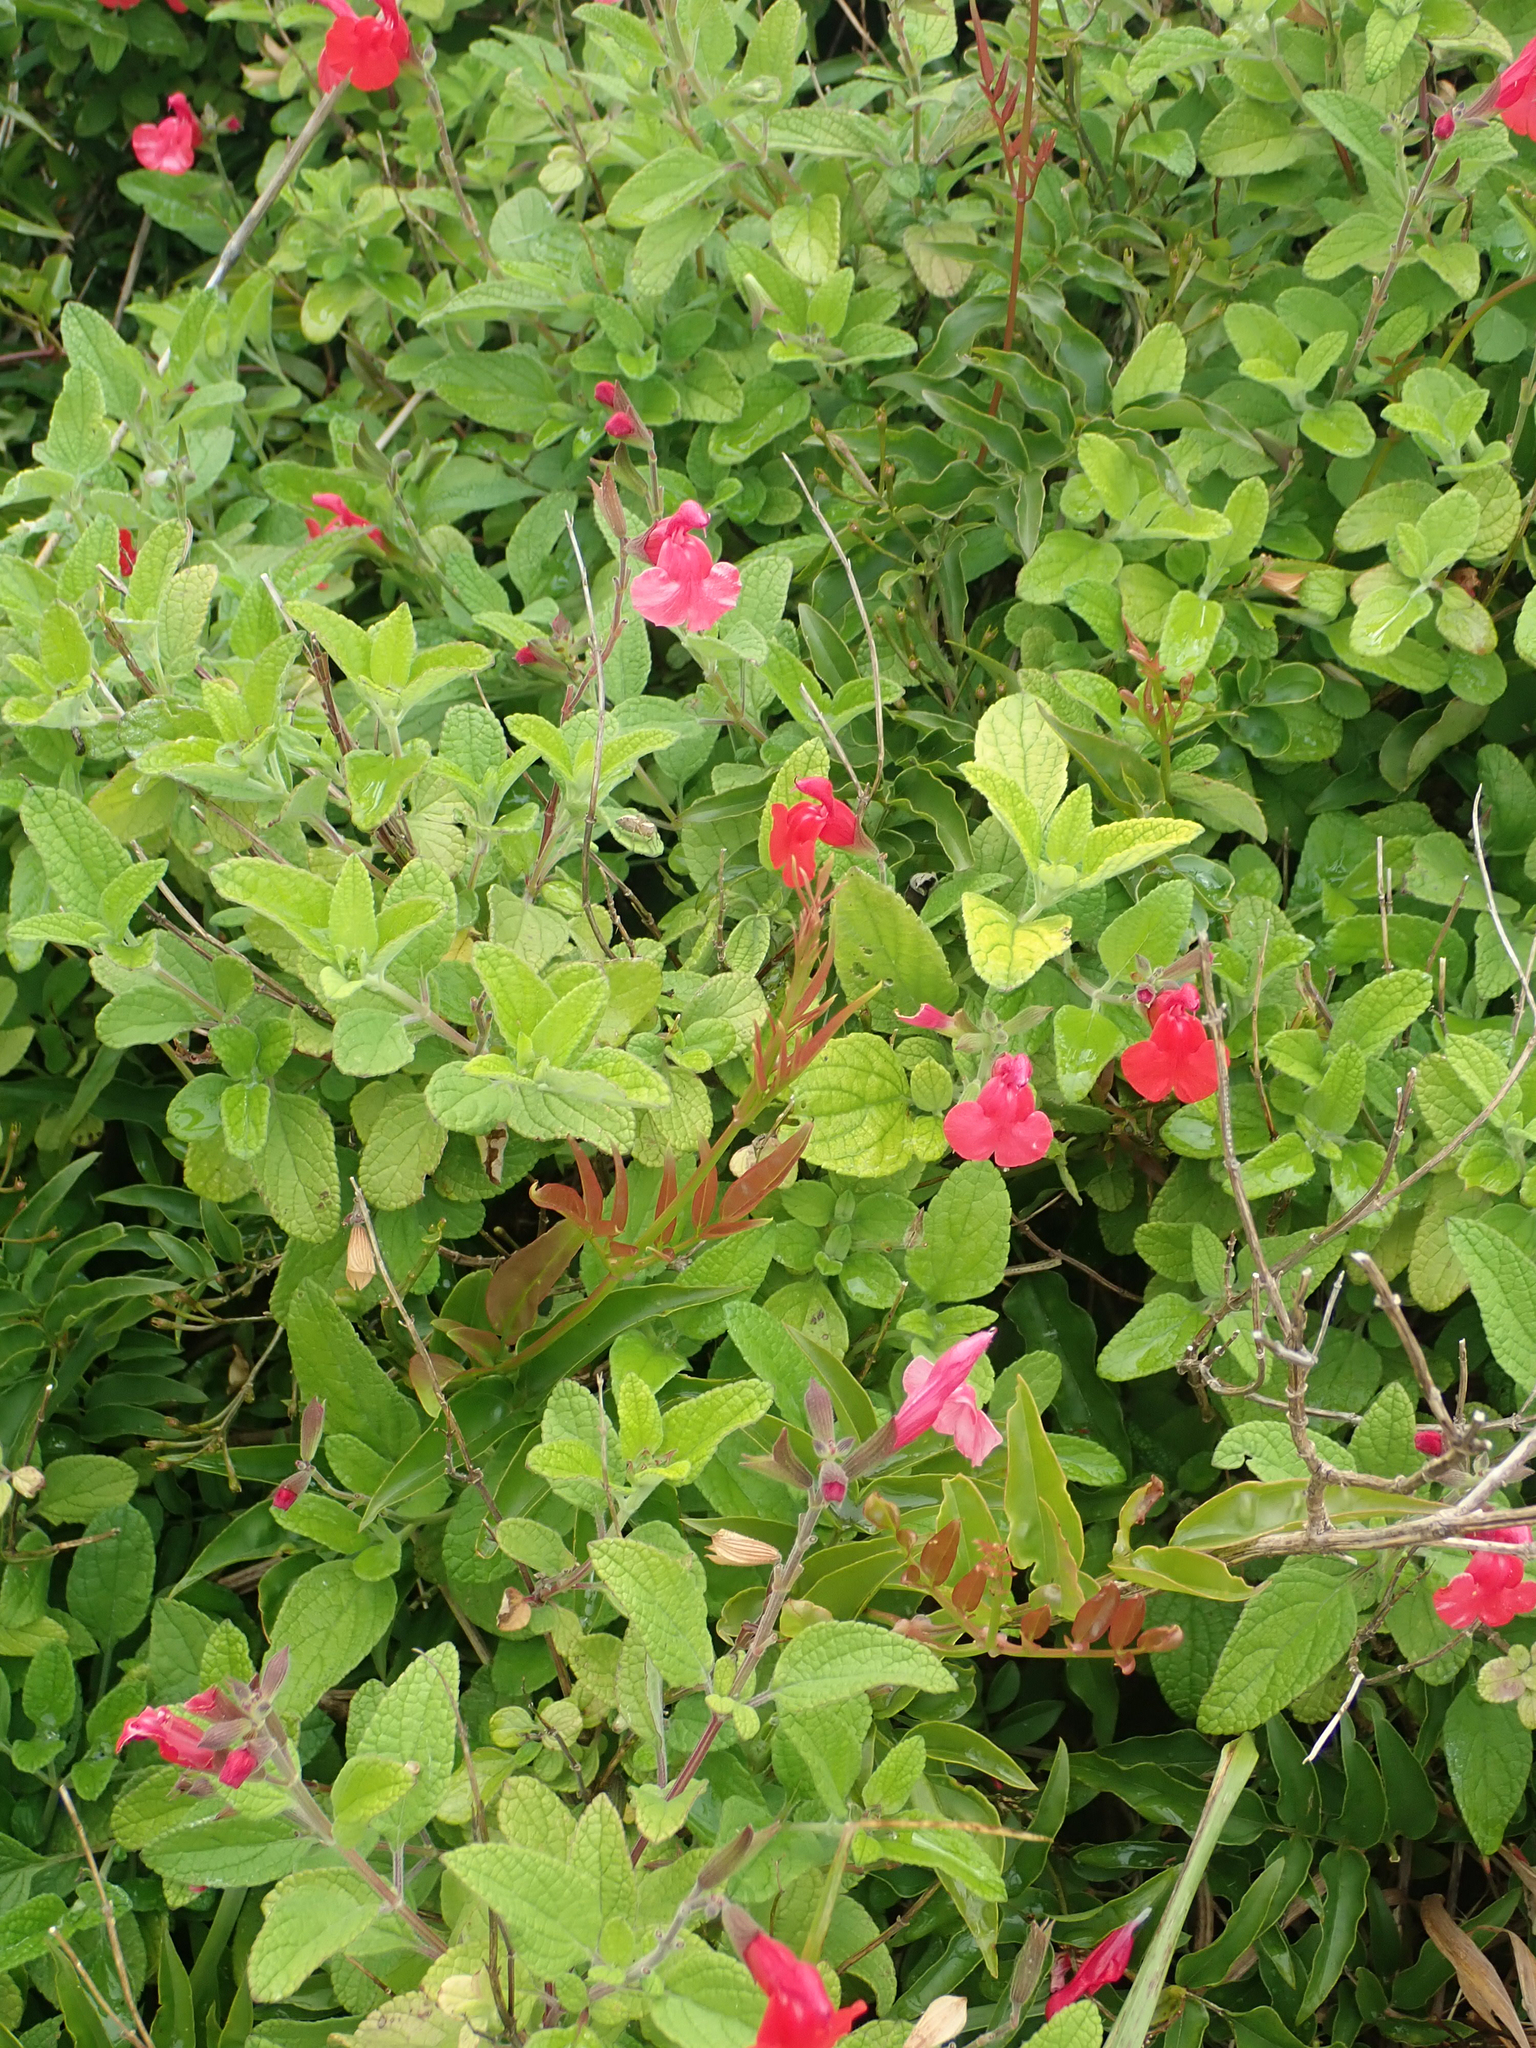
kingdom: Plantae
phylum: Tracheophyta
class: Magnoliopsida
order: Lamiales
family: Lamiaceae
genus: Salvia
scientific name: Salvia microphylla
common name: Baby sage
